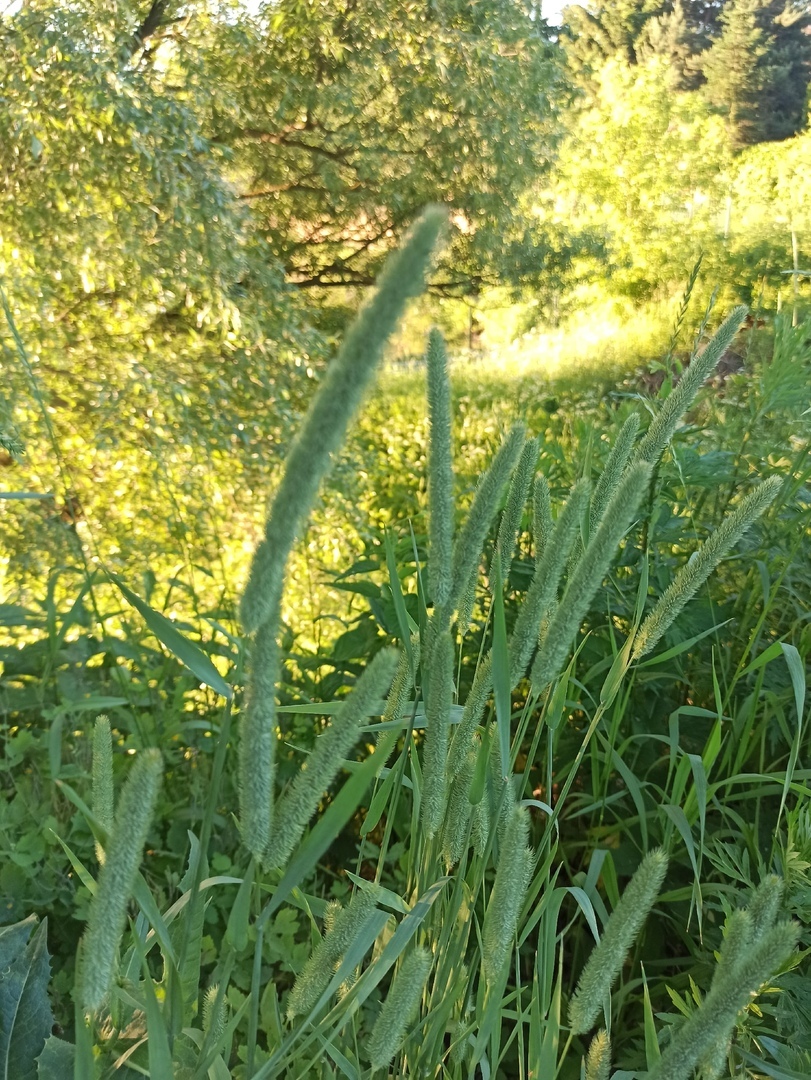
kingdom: Plantae
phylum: Tracheophyta
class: Liliopsida
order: Poales
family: Poaceae
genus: Phleum
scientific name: Phleum pratense
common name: Timothy grass
